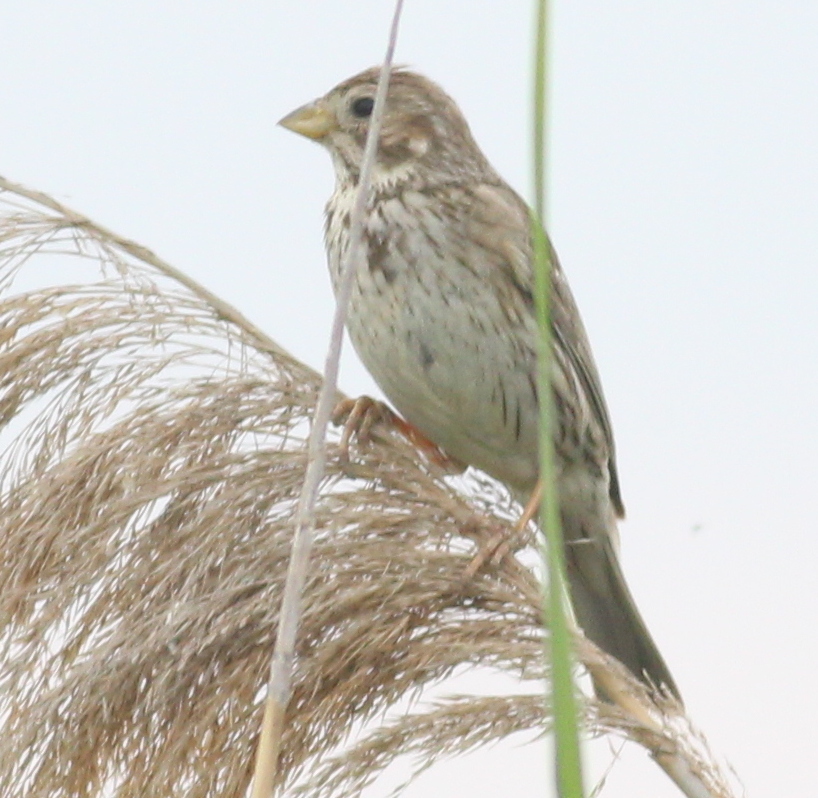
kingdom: Animalia
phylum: Chordata
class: Aves
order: Passeriformes
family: Emberizidae
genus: Emberiza
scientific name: Emberiza calandra
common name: Corn bunting
